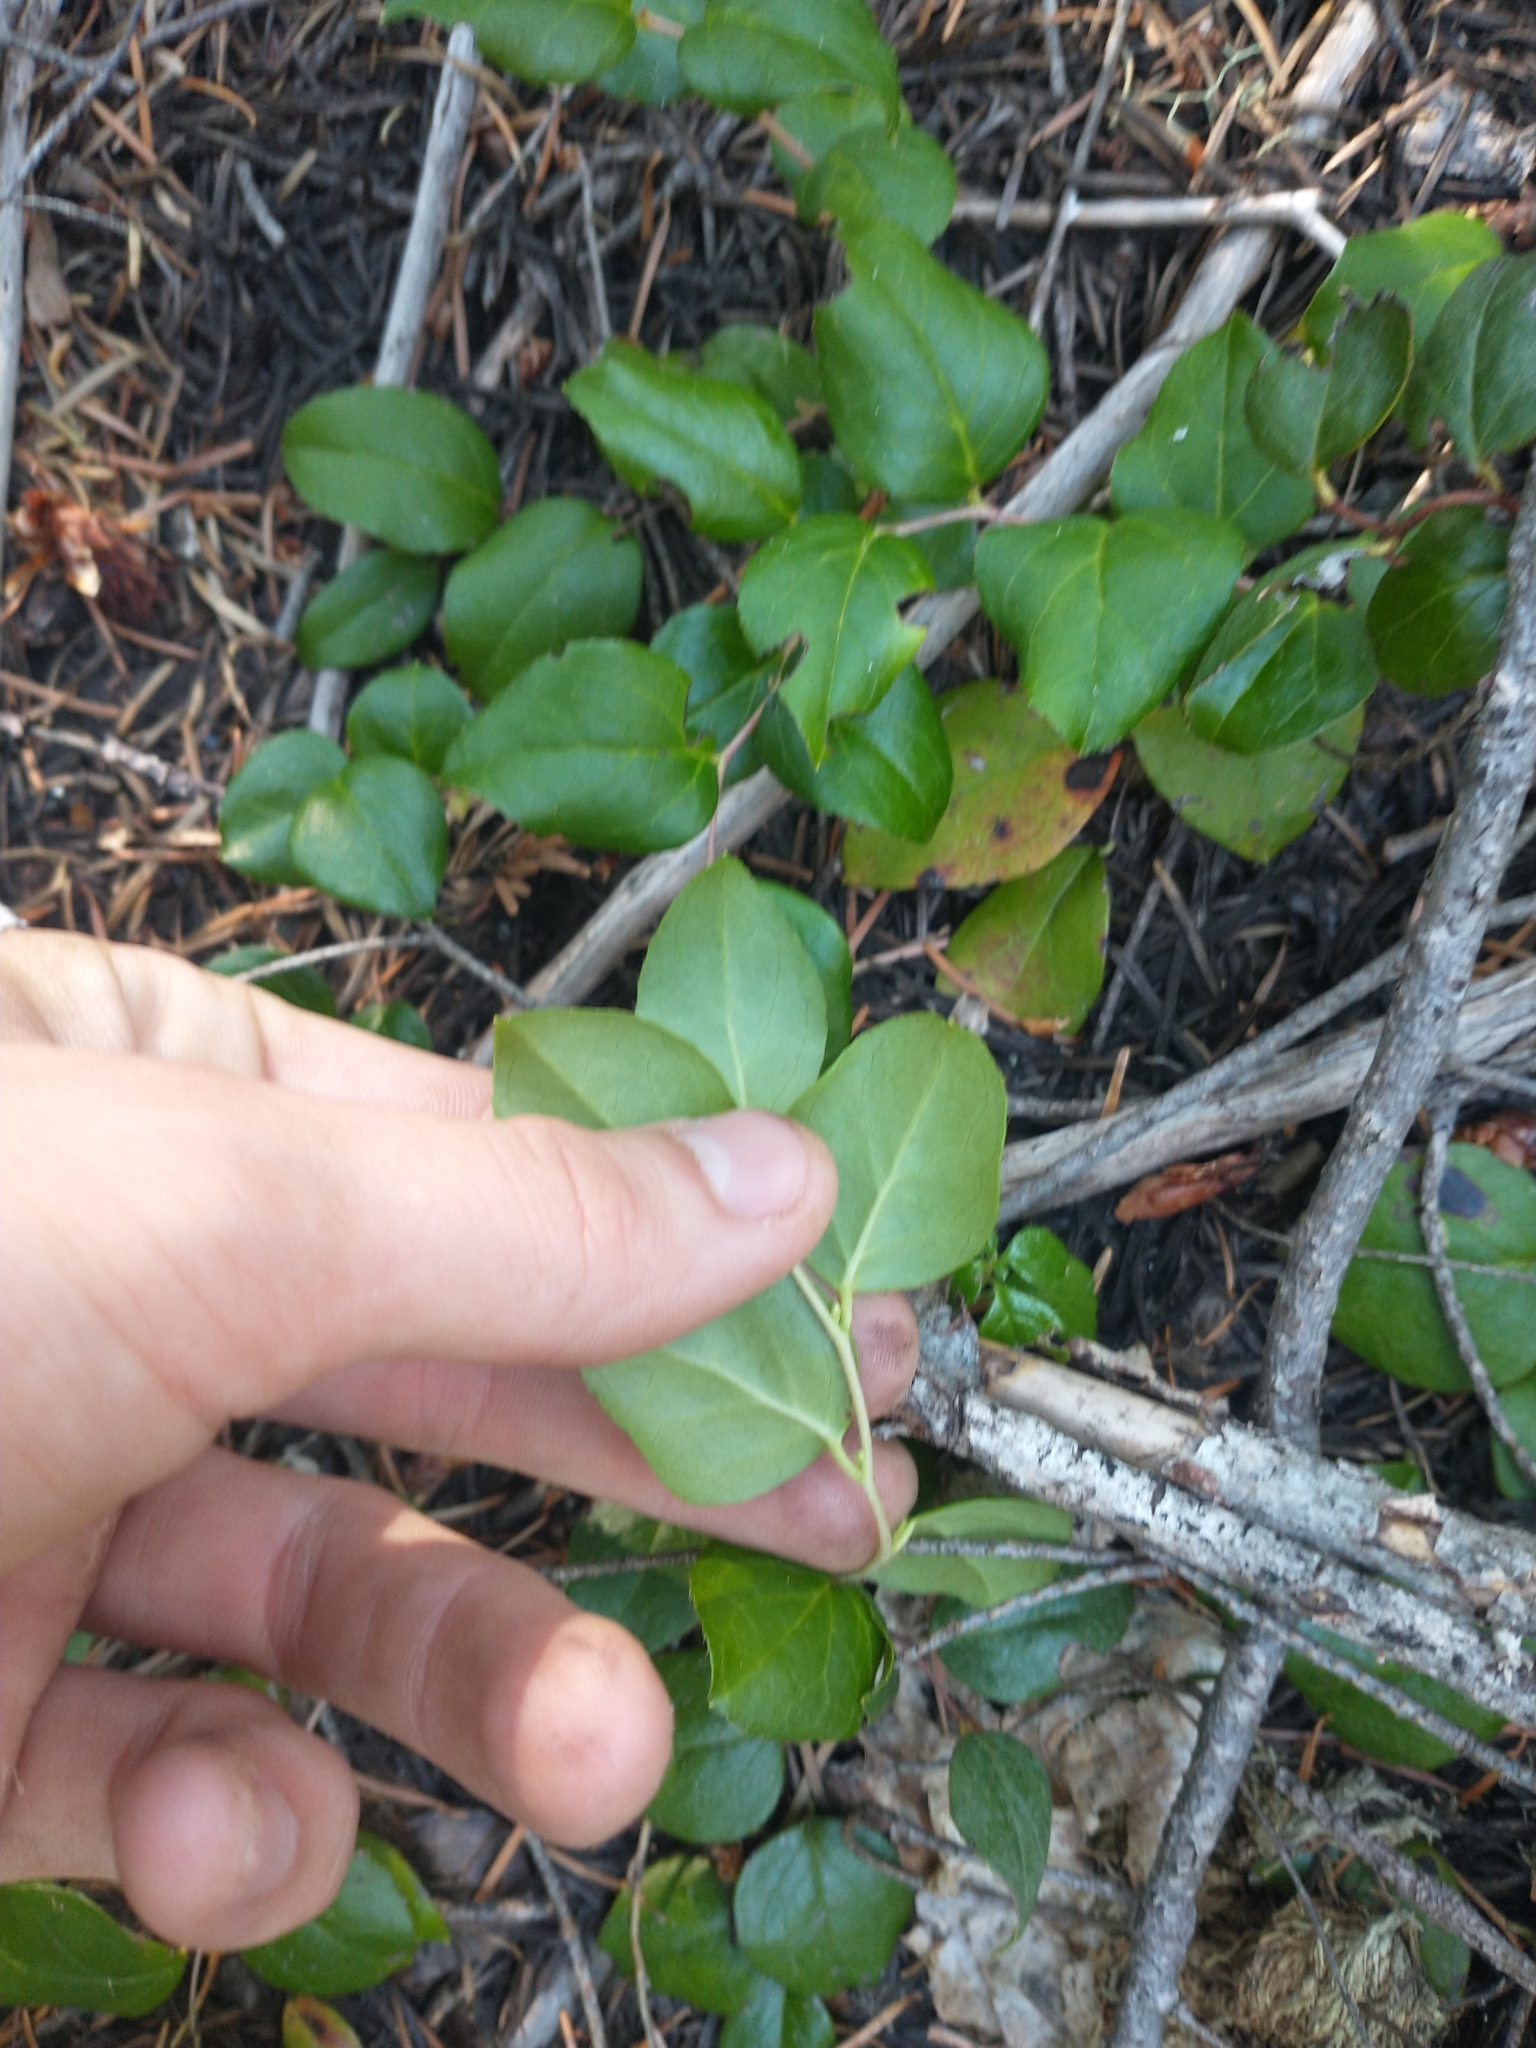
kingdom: Plantae
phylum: Tracheophyta
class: Magnoliopsida
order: Ericales
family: Ericaceae
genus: Gaultheria
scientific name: Gaultheria ovatifolia
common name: Oregon wintergreen
